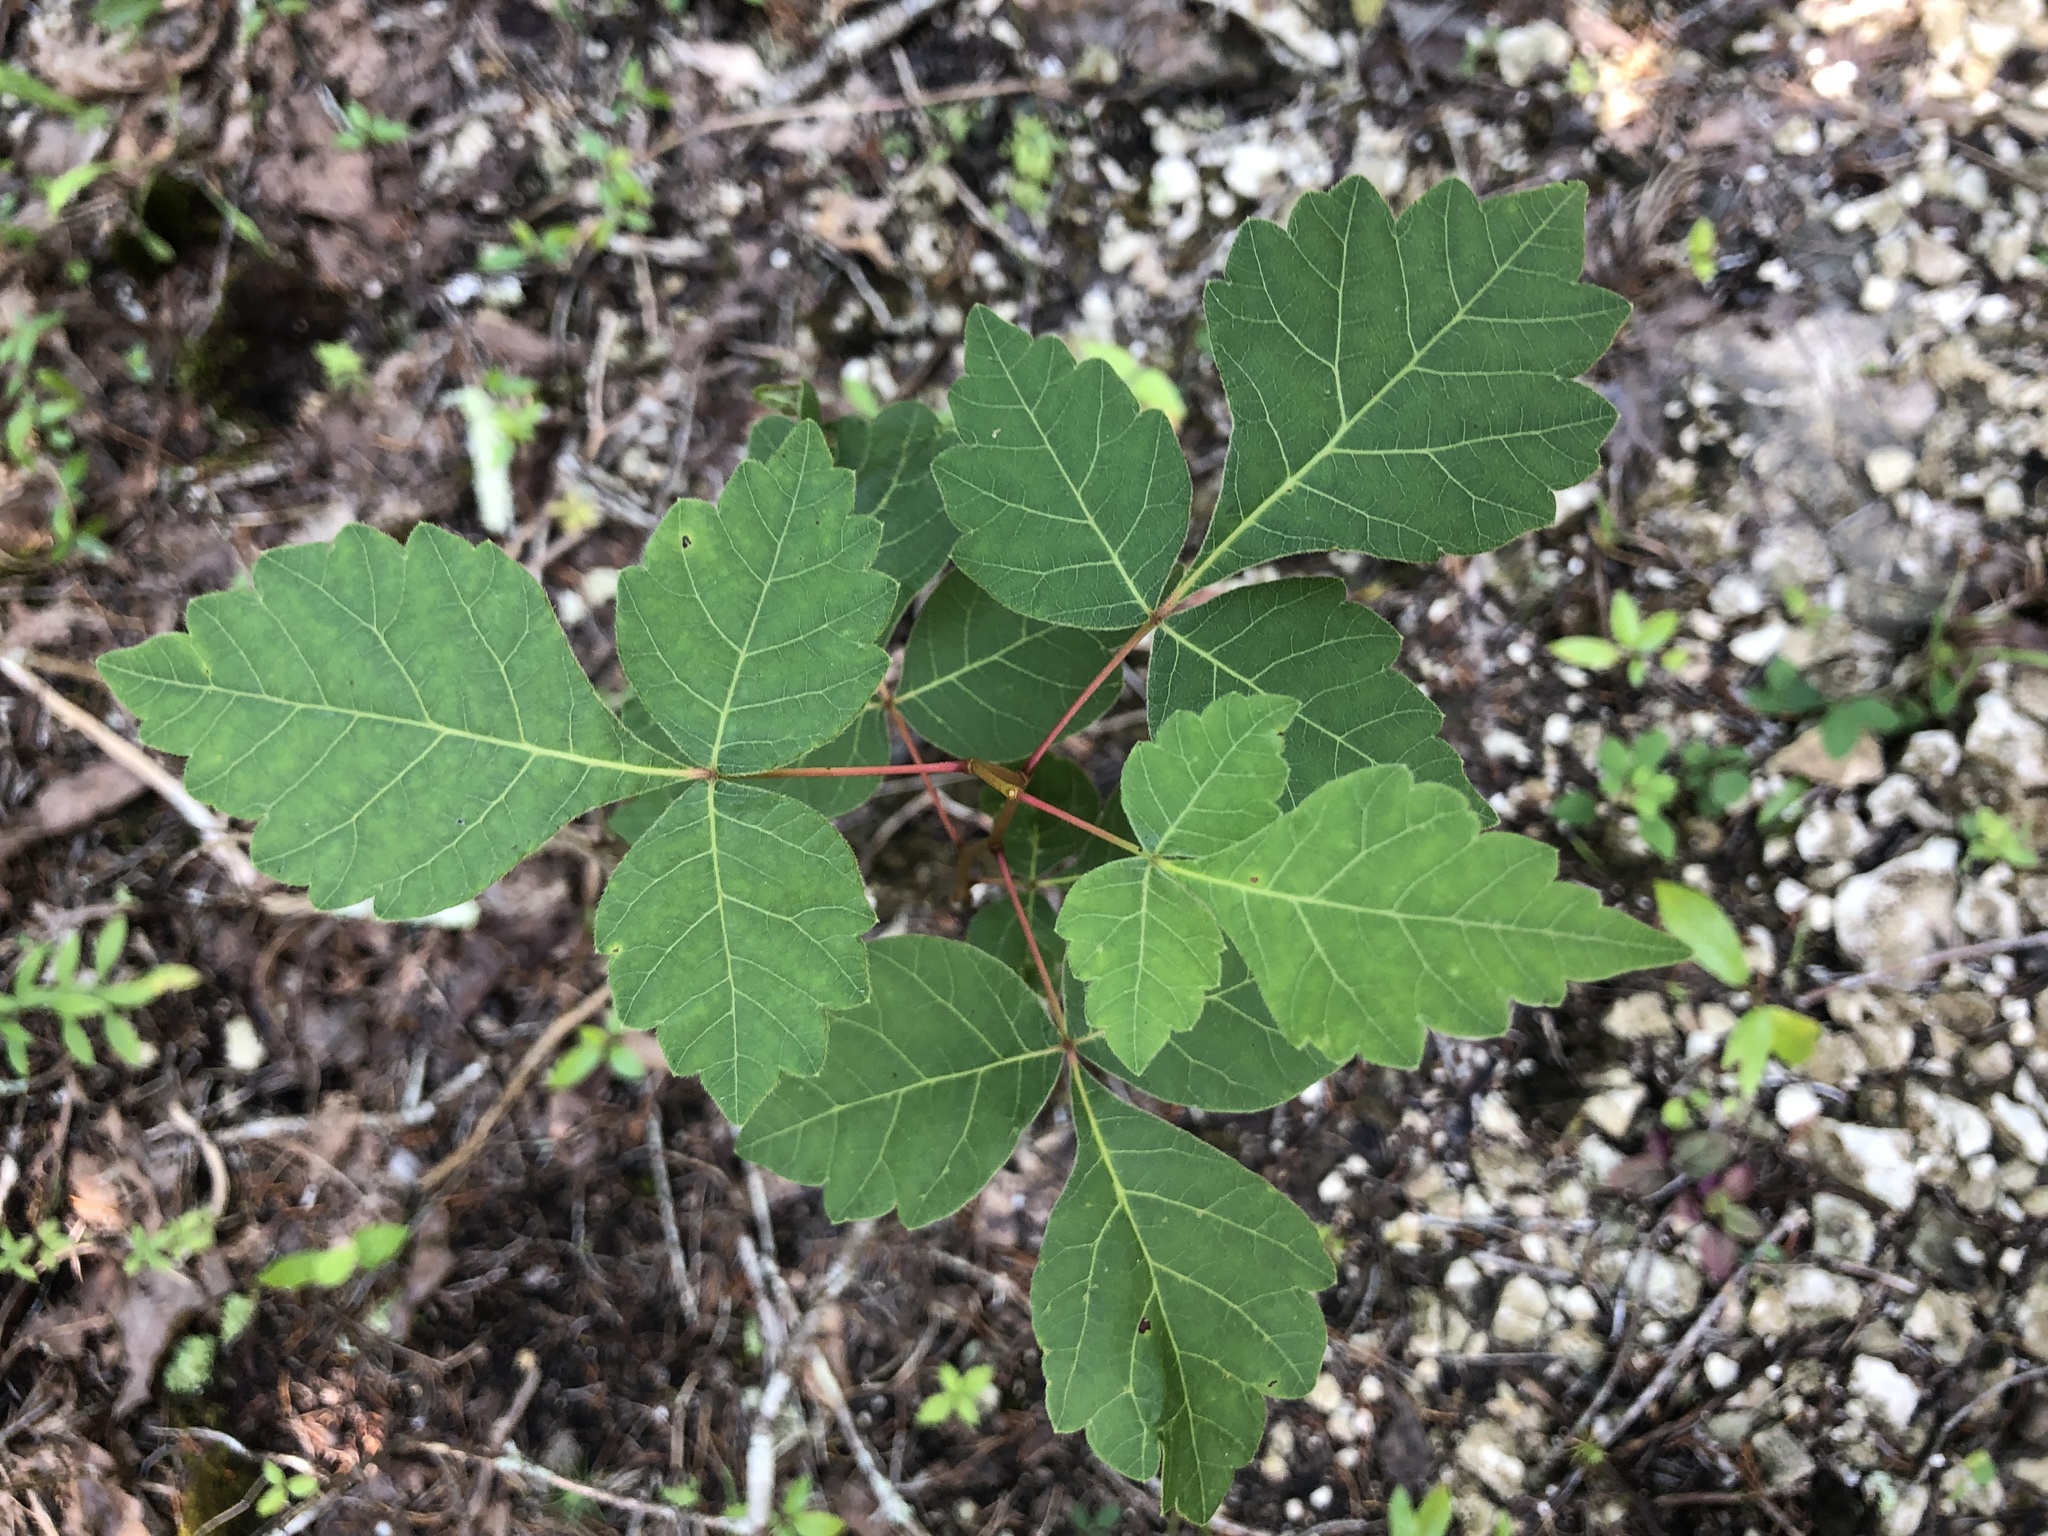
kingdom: Plantae
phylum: Tracheophyta
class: Magnoliopsida
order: Sapindales
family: Anacardiaceae
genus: Rhus
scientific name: Rhus aromatica
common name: Aromatic sumac
